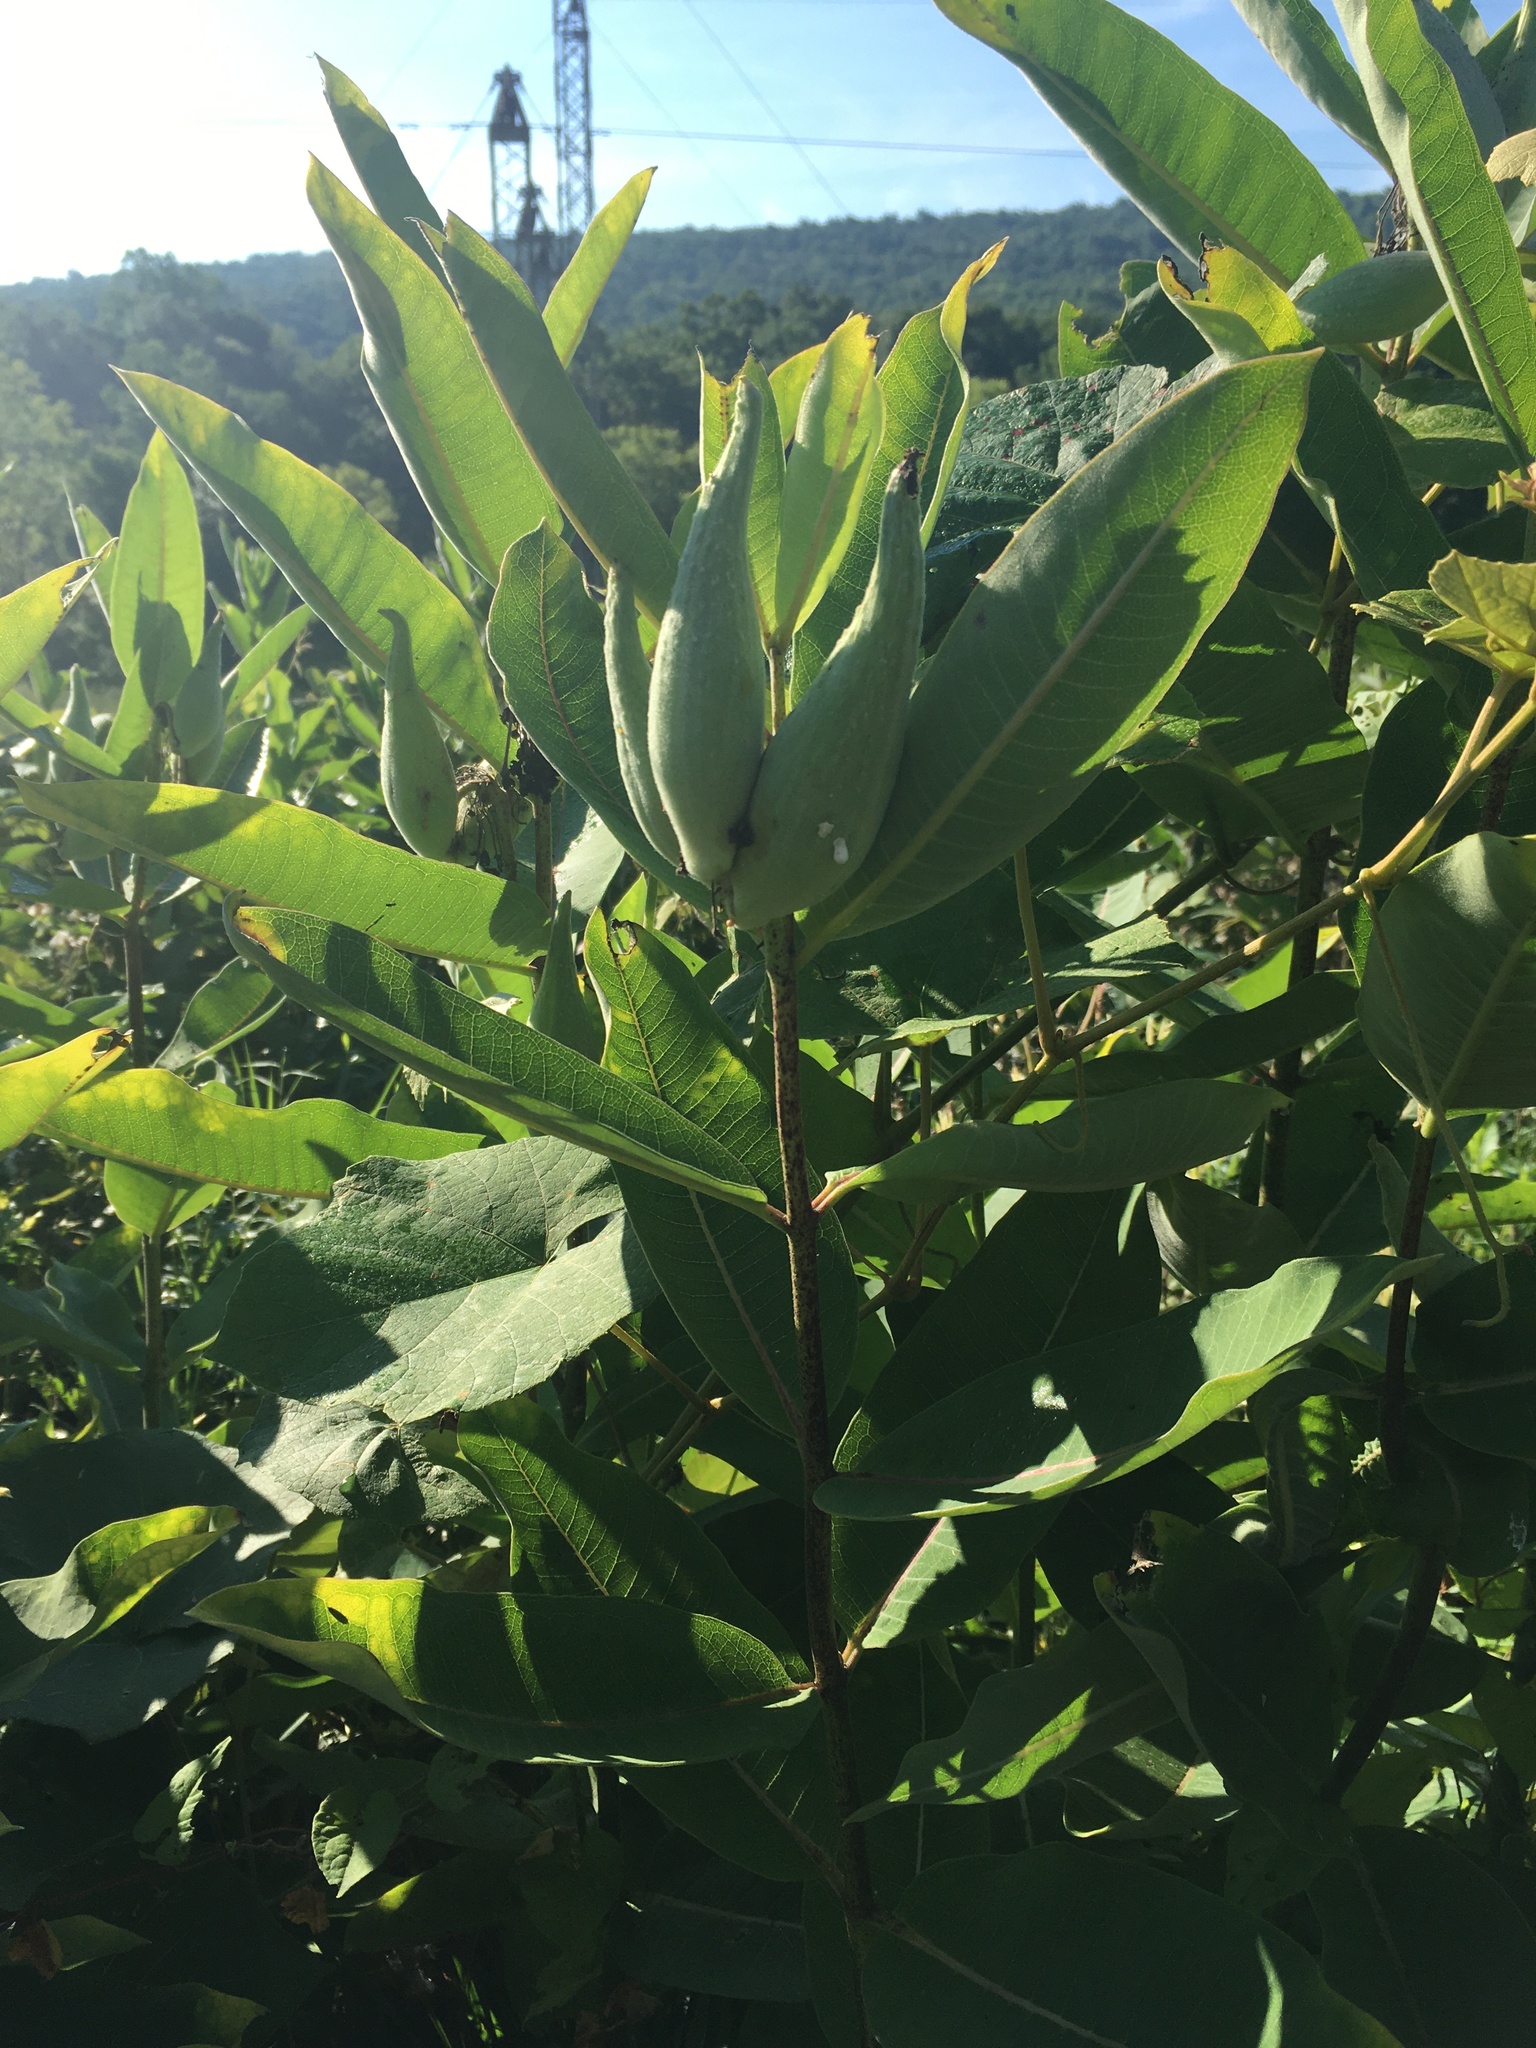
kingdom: Plantae
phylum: Tracheophyta
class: Magnoliopsida
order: Gentianales
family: Apocynaceae
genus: Asclepias
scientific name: Asclepias syriaca
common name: Common milkweed
